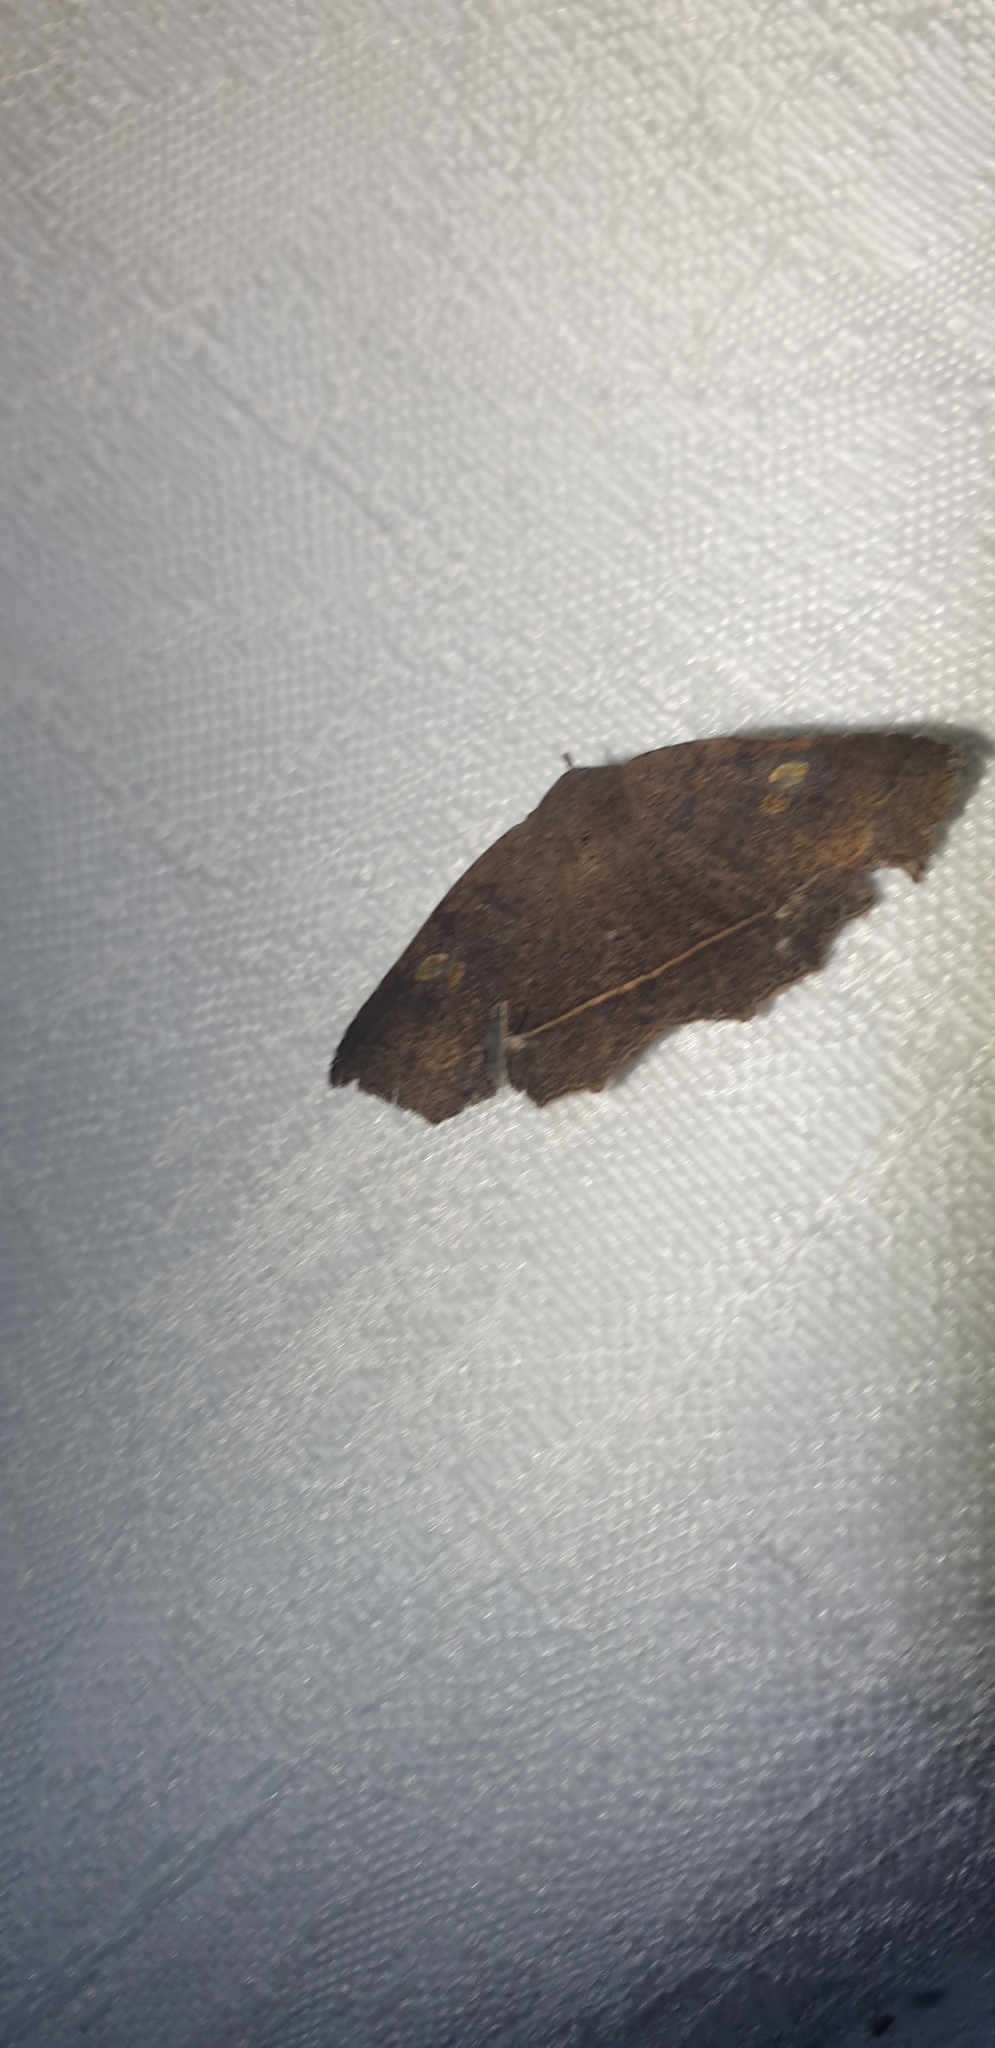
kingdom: Animalia
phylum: Arthropoda
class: Insecta
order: Lepidoptera
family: Erebidae
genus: Amphiongia
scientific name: Amphiongia chordophoides
